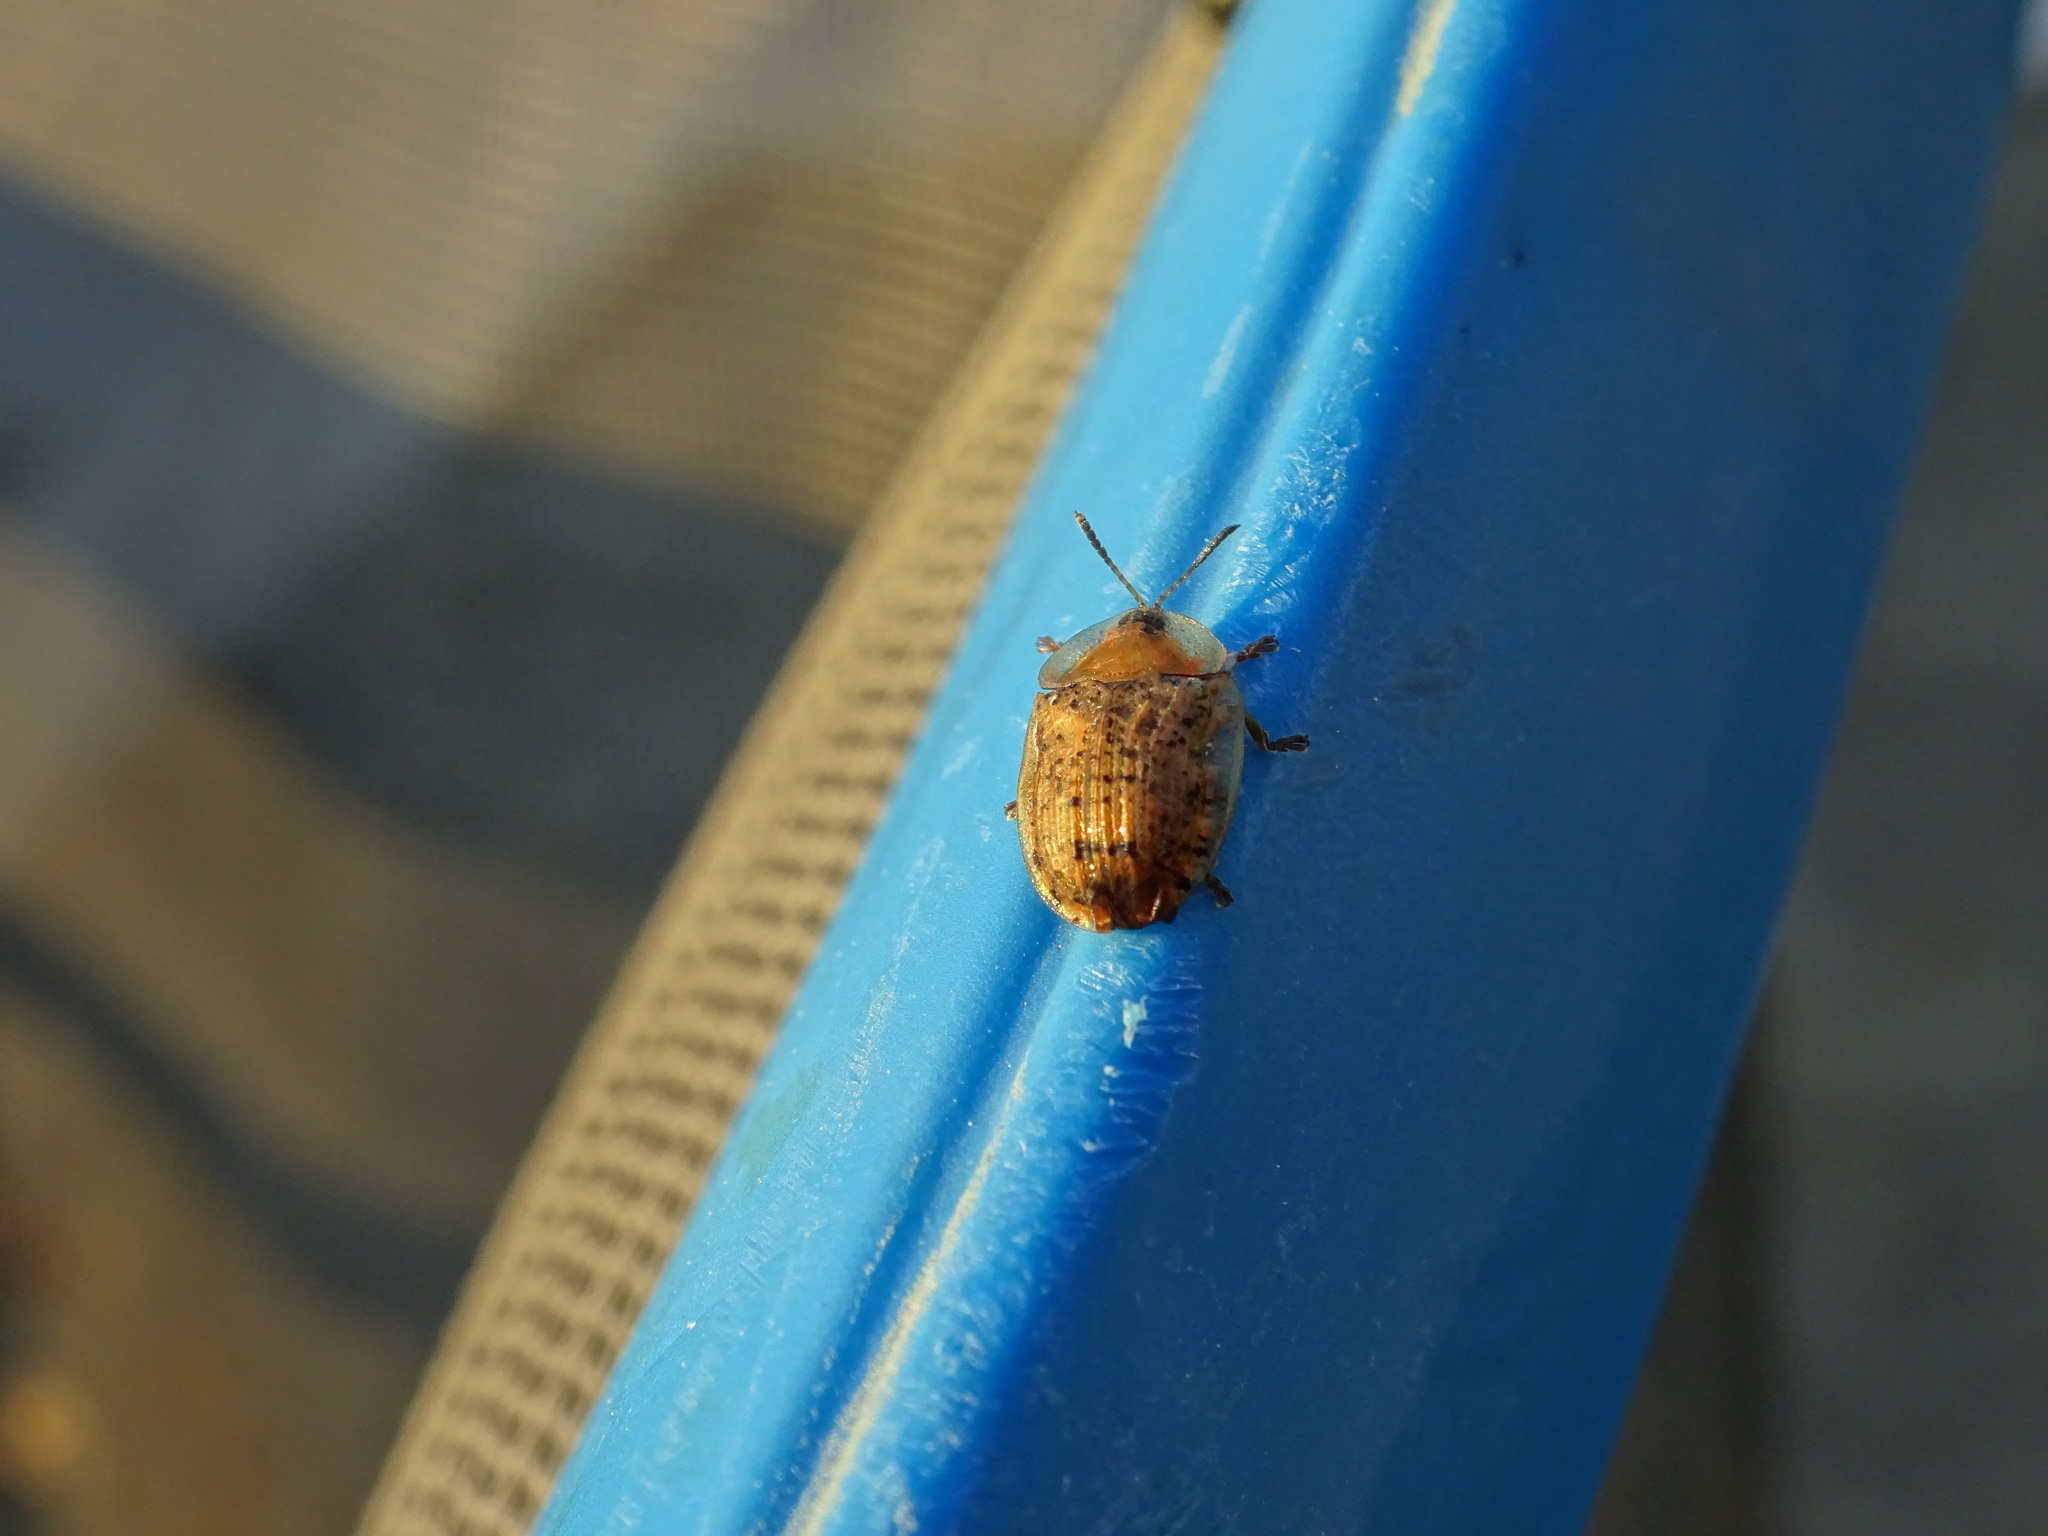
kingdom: Animalia
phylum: Arthropoda
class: Insecta
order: Coleoptera
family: Chrysomelidae
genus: Cassida
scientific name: Cassida nebulosa
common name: Beet tortoise beetle
